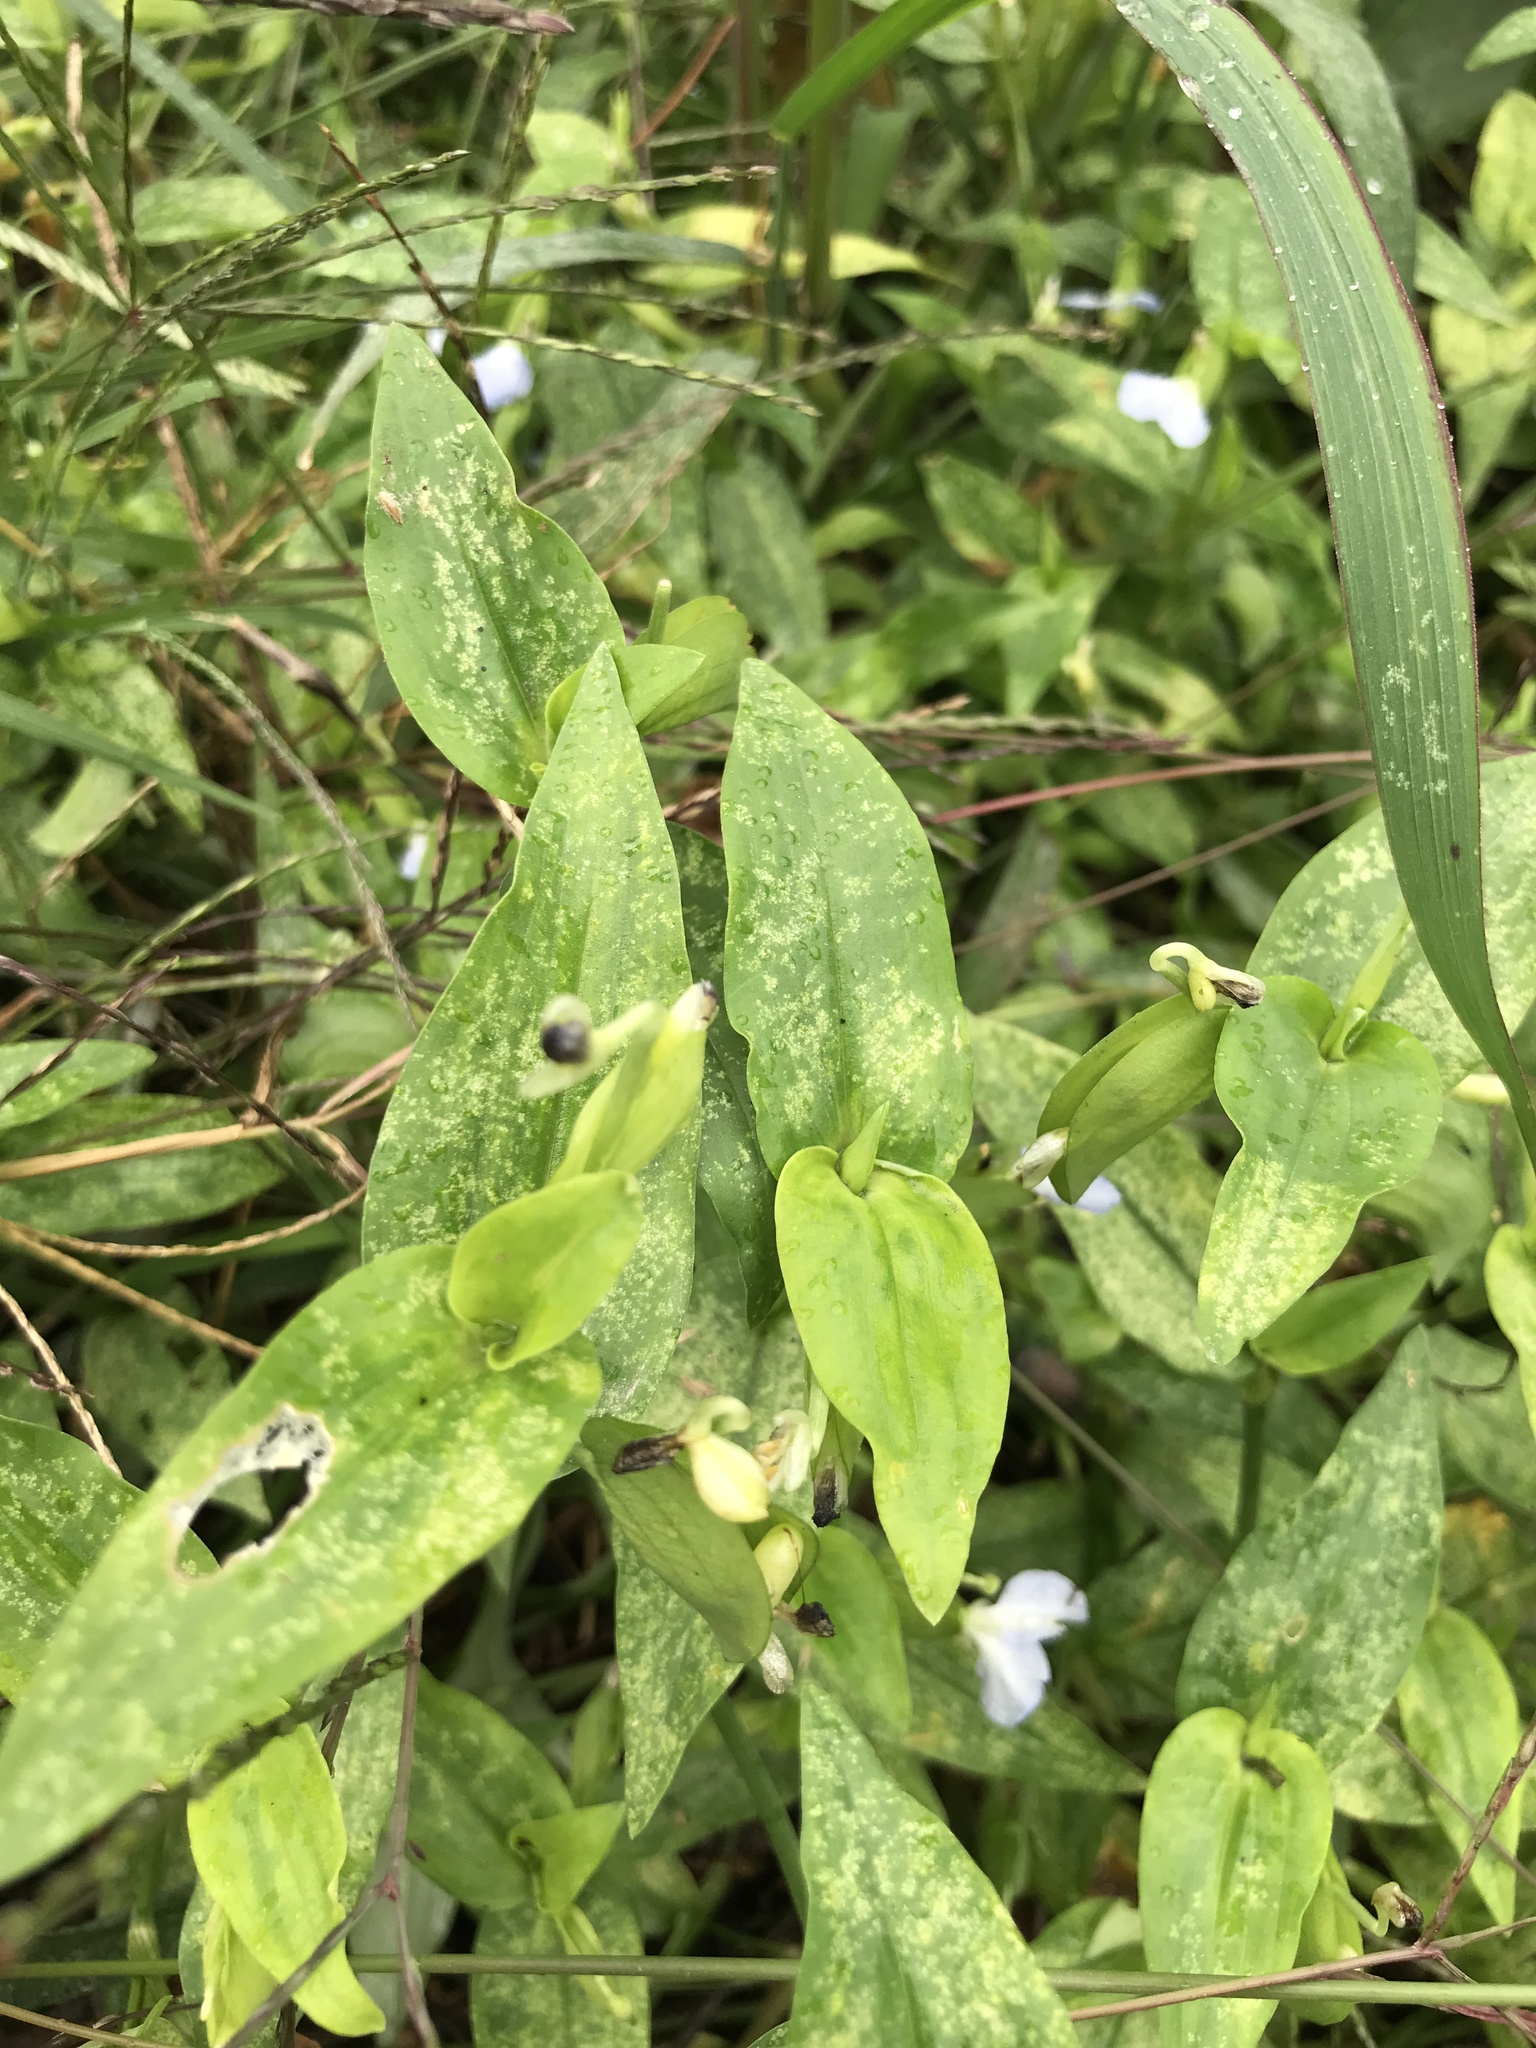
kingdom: Plantae
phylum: Tracheophyta
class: Liliopsida
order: Commelinales
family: Commelinaceae
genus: Commelina
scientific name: Commelina communis
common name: Asiatic dayflower
